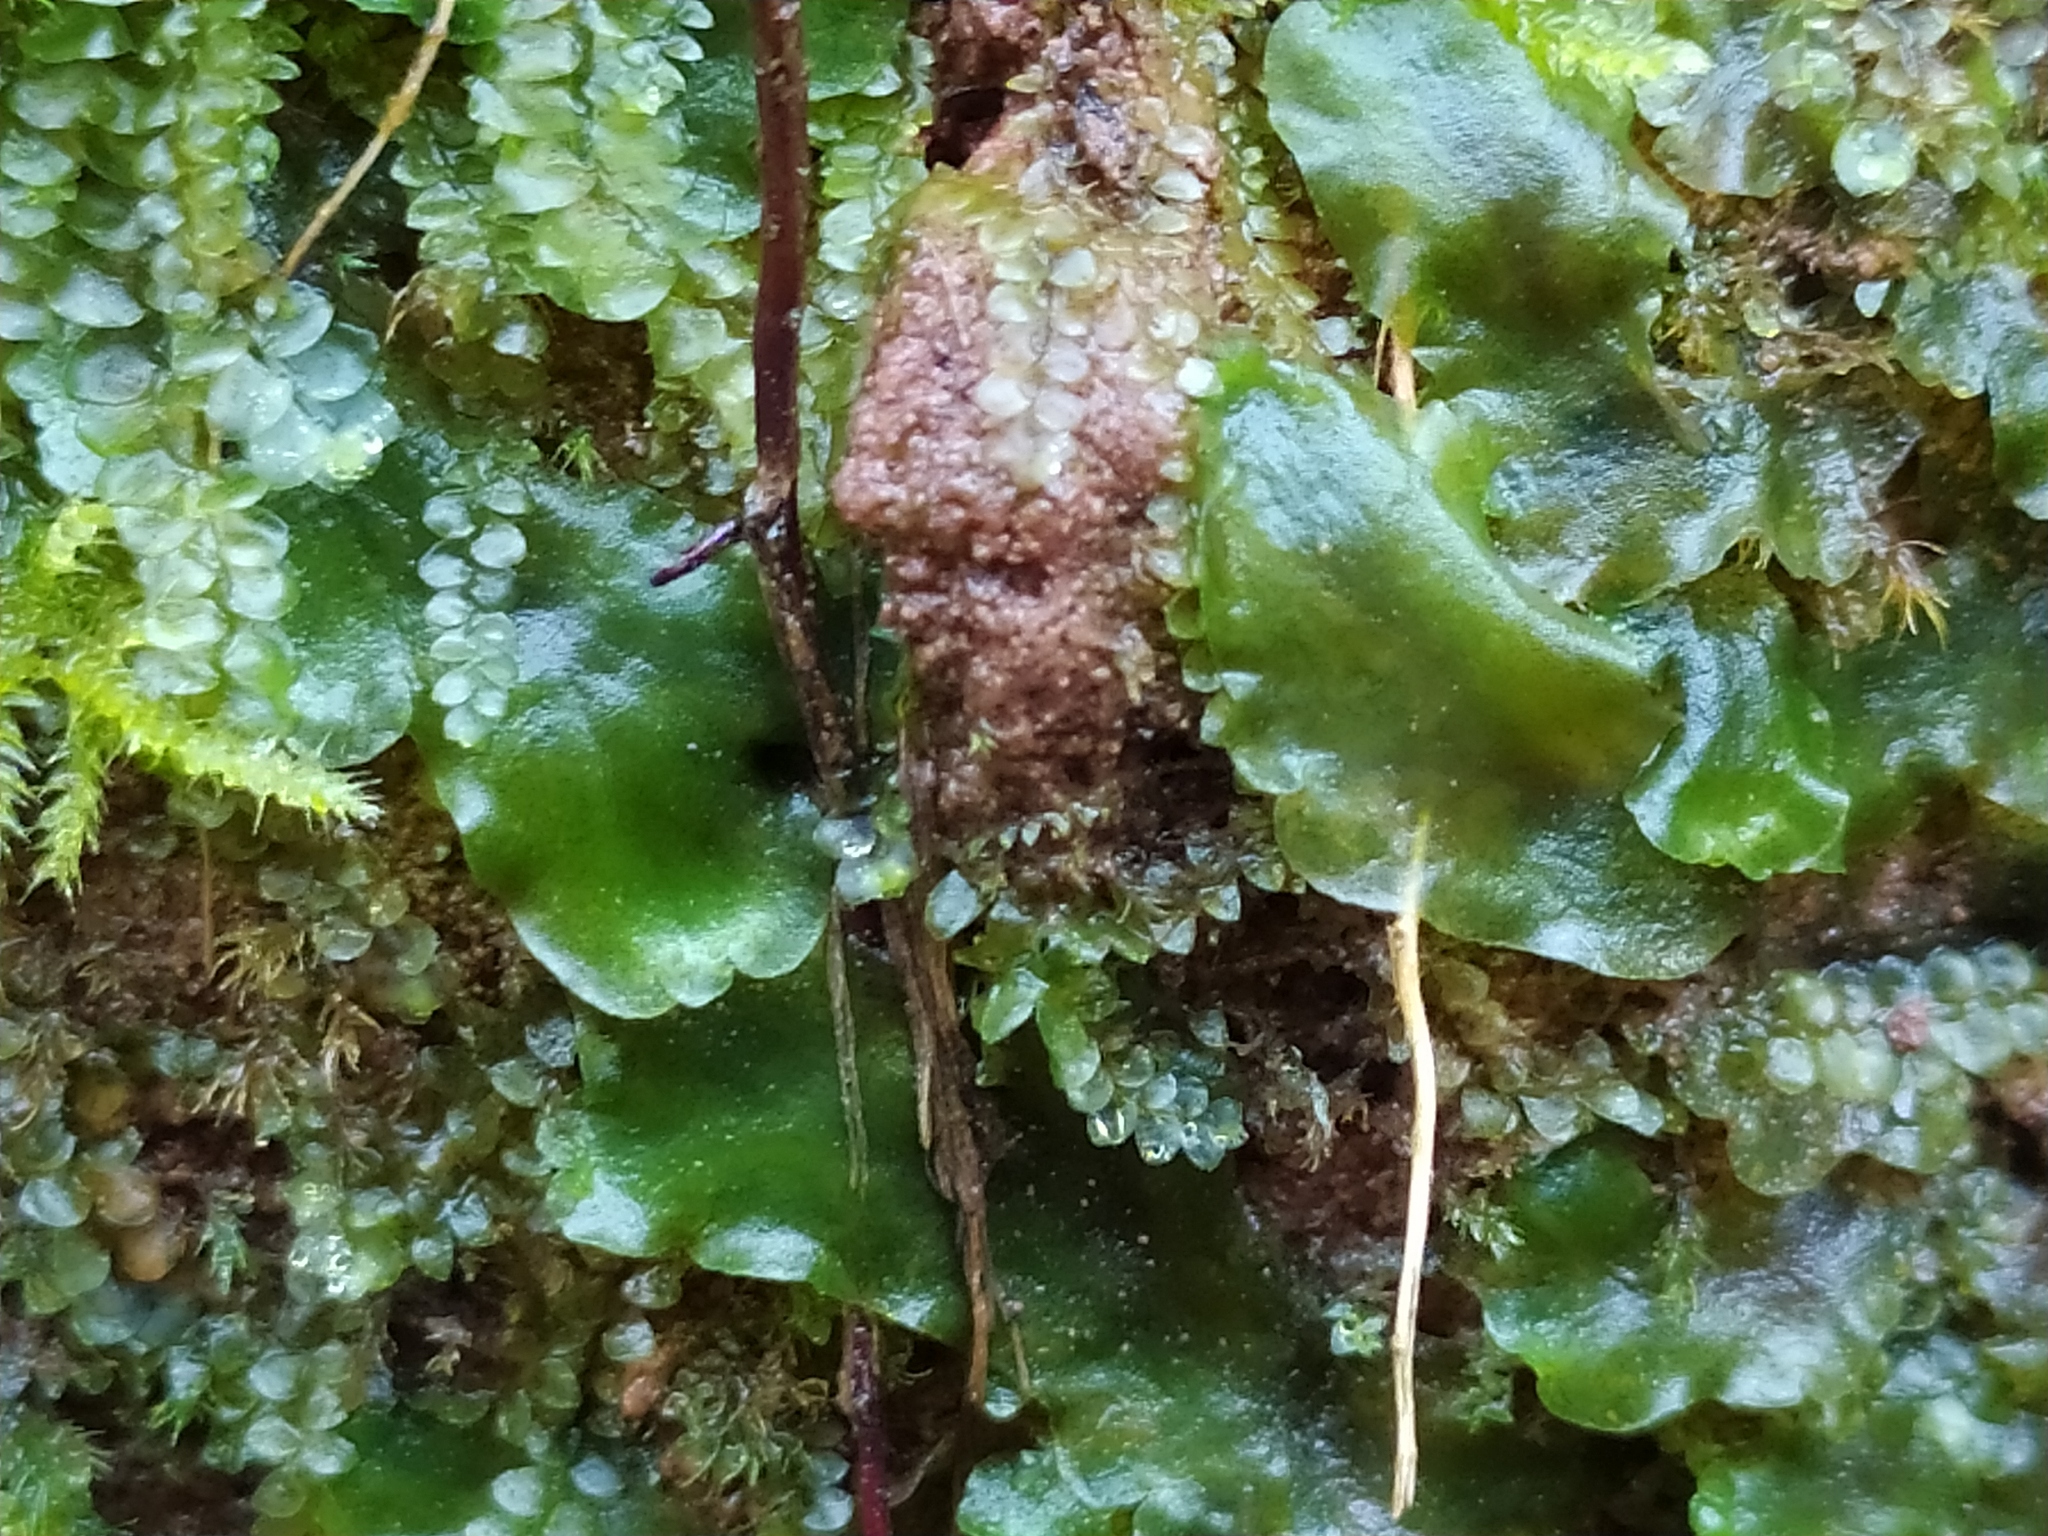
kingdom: Plantae
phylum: Marchantiophyta
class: Jungermanniopsida
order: Pelliales
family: Pelliaceae
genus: Pellia
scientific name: Pellia epiphylla
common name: Common pellia
